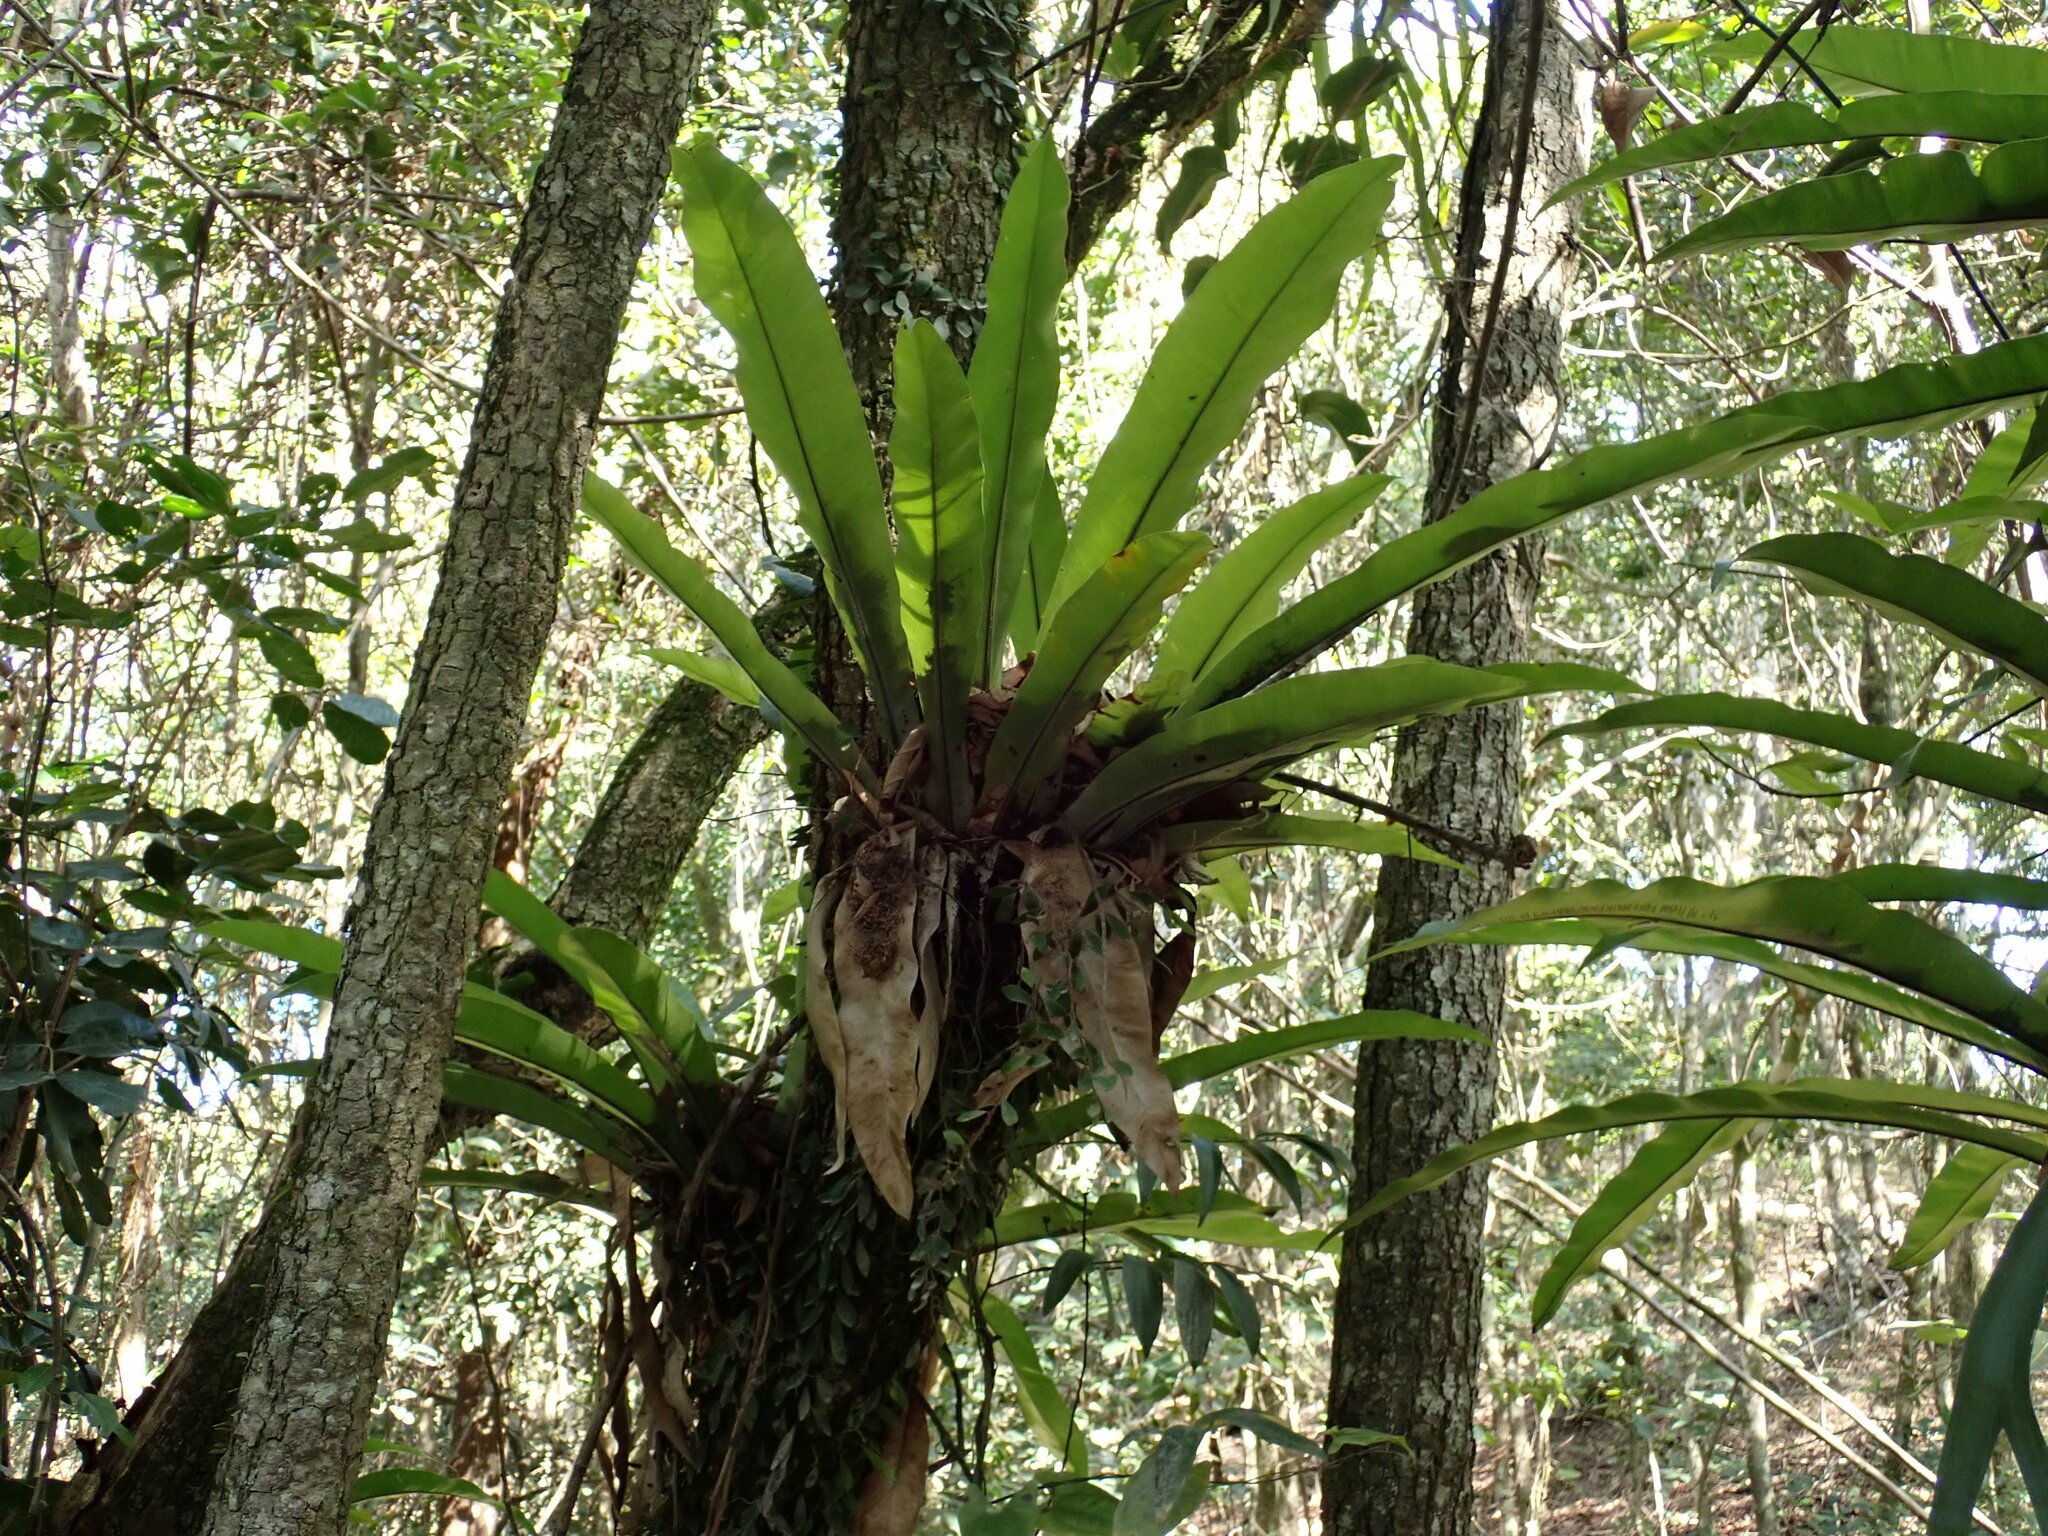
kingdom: Plantae
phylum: Tracheophyta
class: Polypodiopsida
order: Polypodiales
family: Aspleniaceae
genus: Asplenium
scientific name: Asplenium australasicum
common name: Bird's-nest fern
